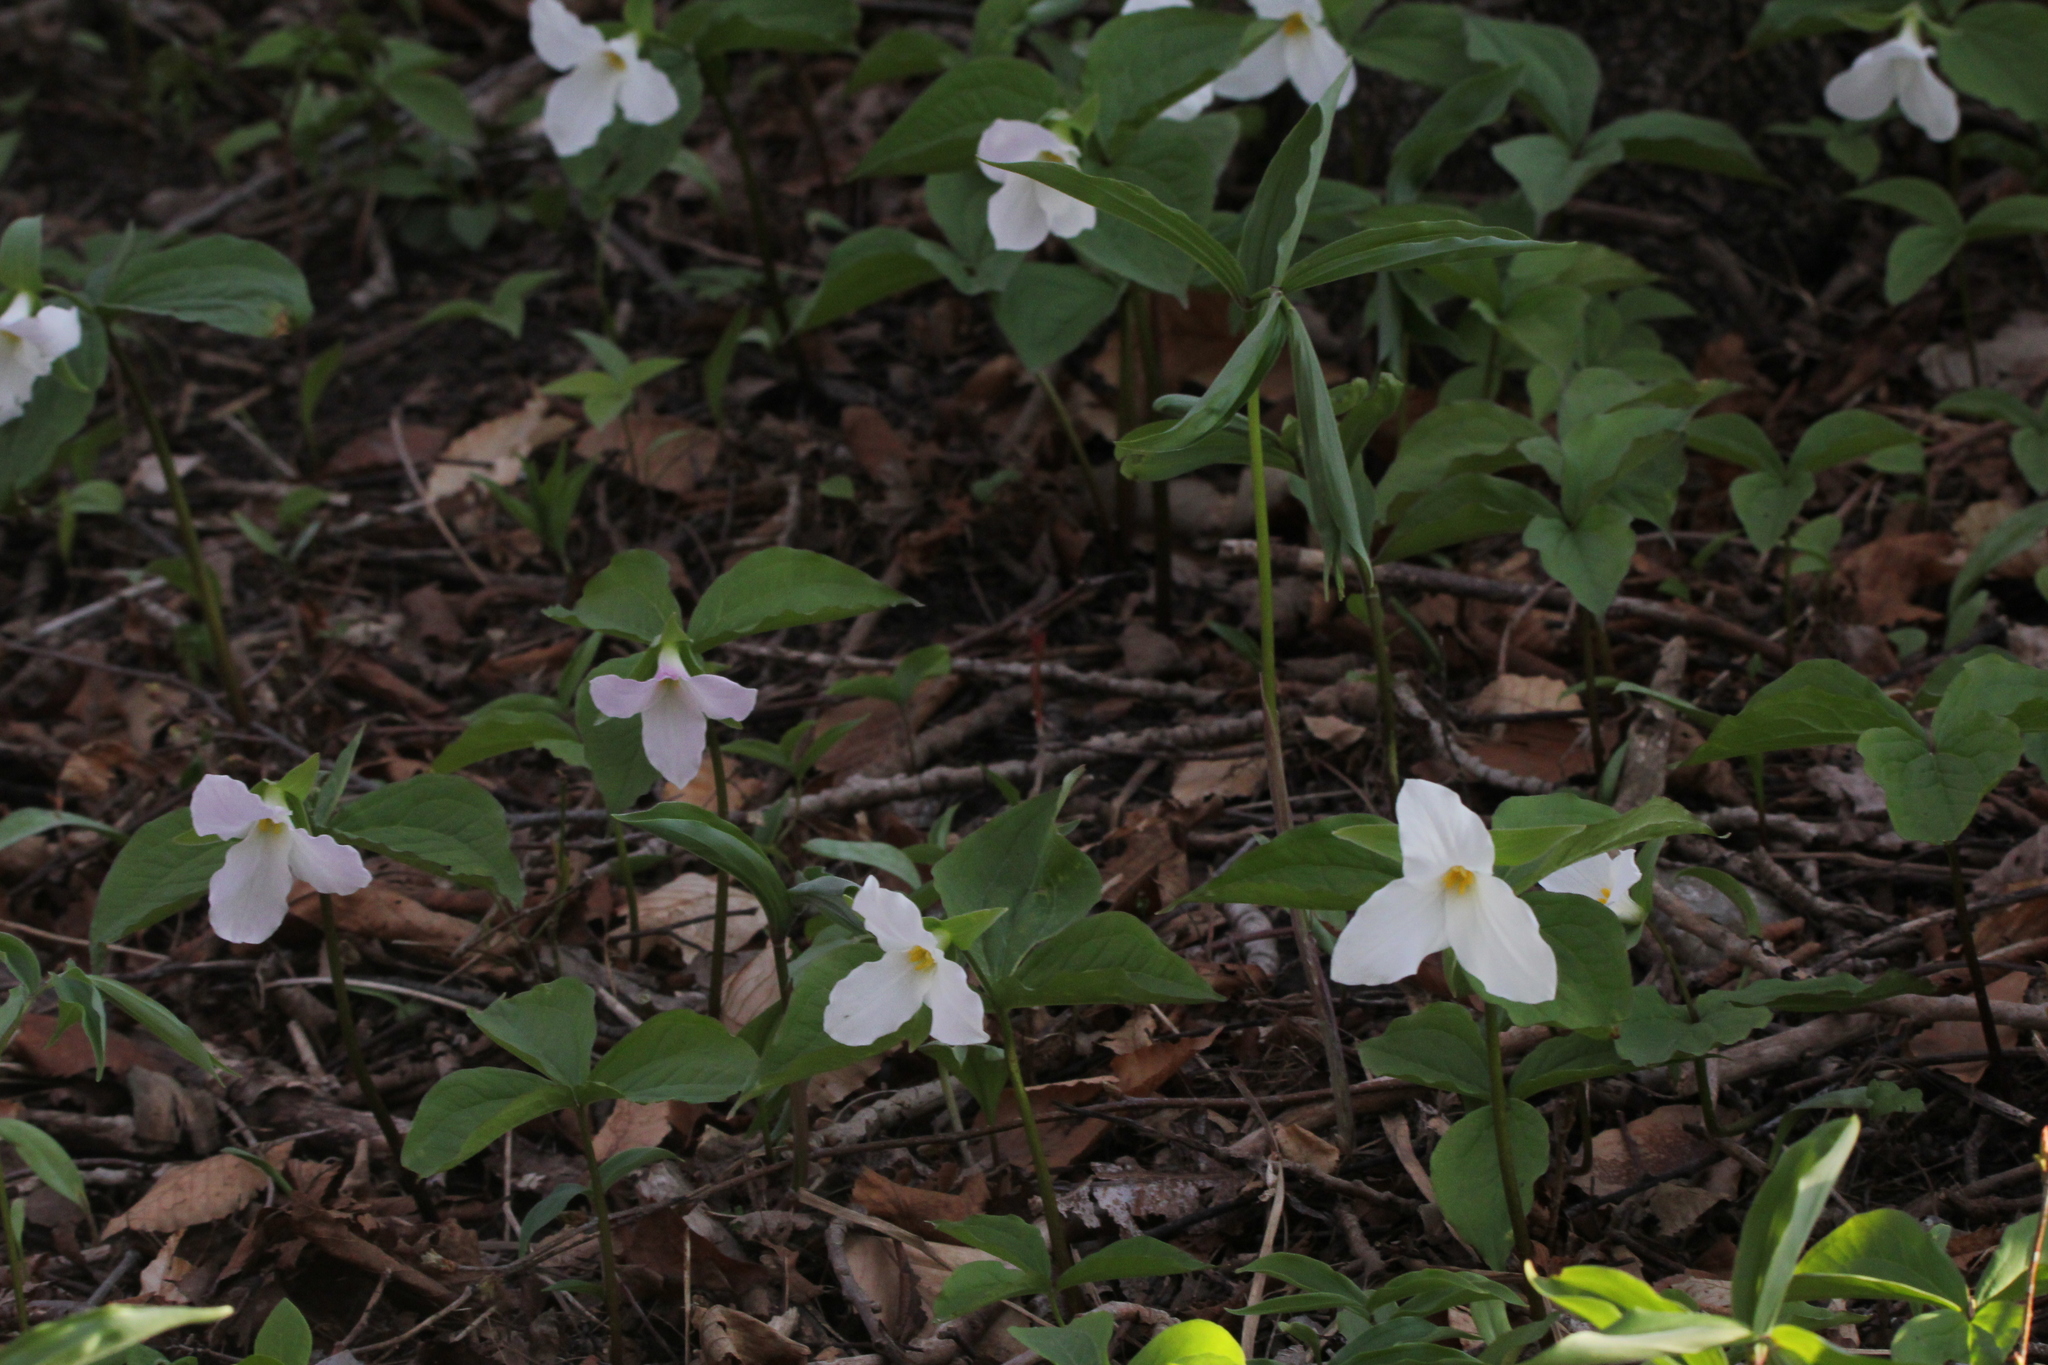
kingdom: Plantae
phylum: Tracheophyta
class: Liliopsida
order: Liliales
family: Melanthiaceae
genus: Trillium
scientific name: Trillium grandiflorum
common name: Great white trillium
